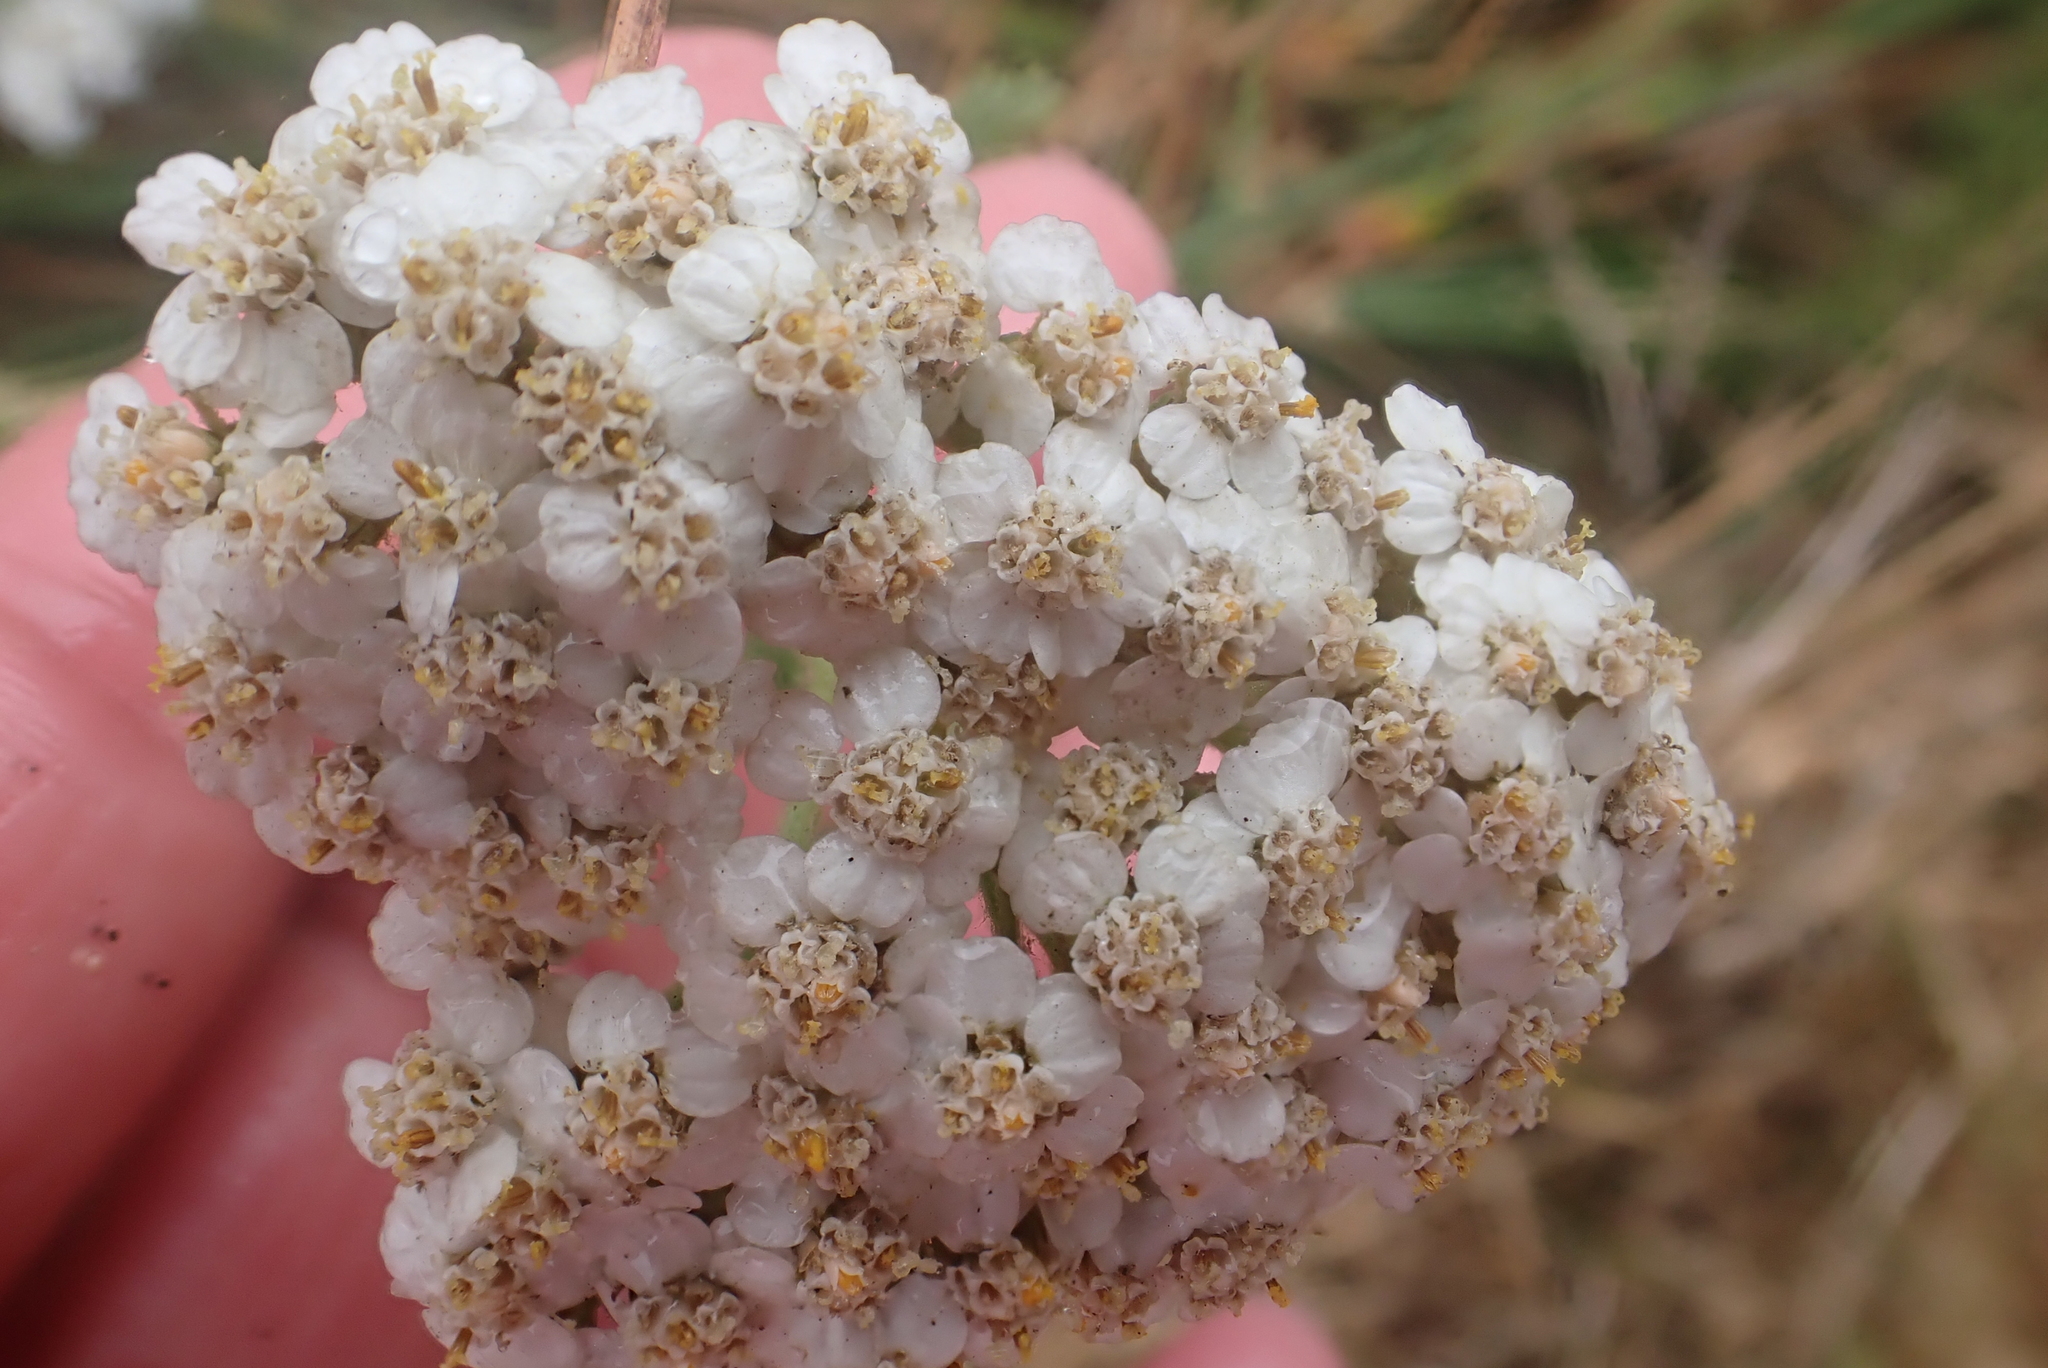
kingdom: Plantae
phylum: Tracheophyta
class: Magnoliopsida
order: Asterales
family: Asteraceae
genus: Achillea
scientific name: Achillea millefolium
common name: Yarrow
